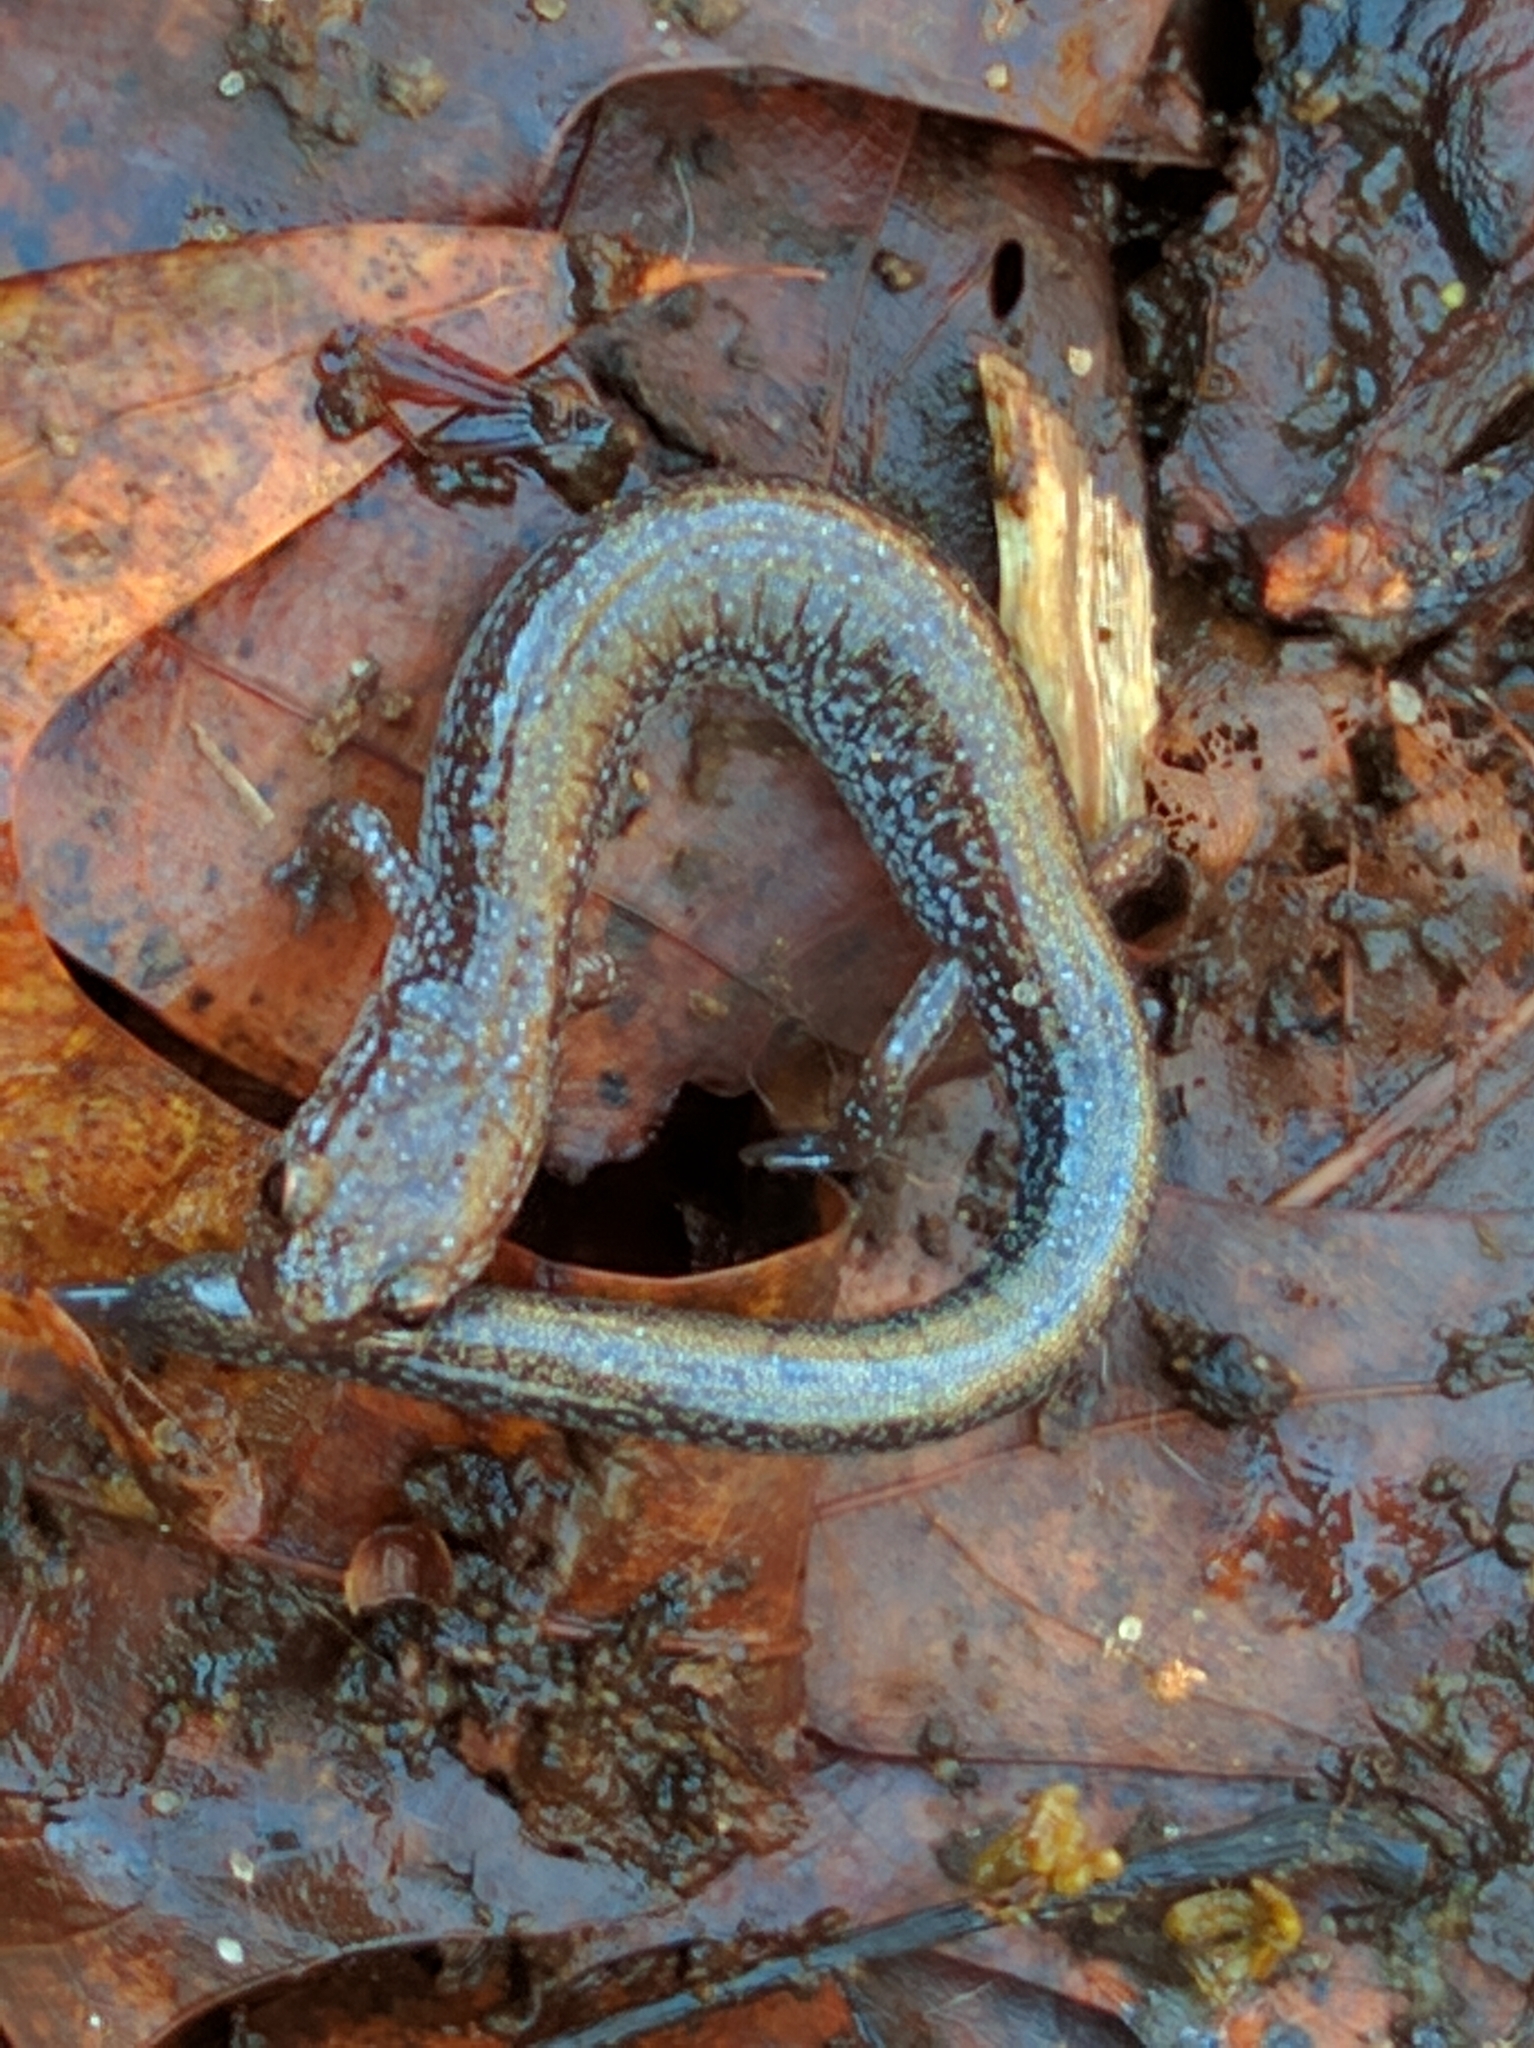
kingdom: Animalia
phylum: Chordata
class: Amphibia
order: Caudata
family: Plethodontidae
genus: Plethodon
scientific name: Plethodon cinereus
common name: Redback salamander
